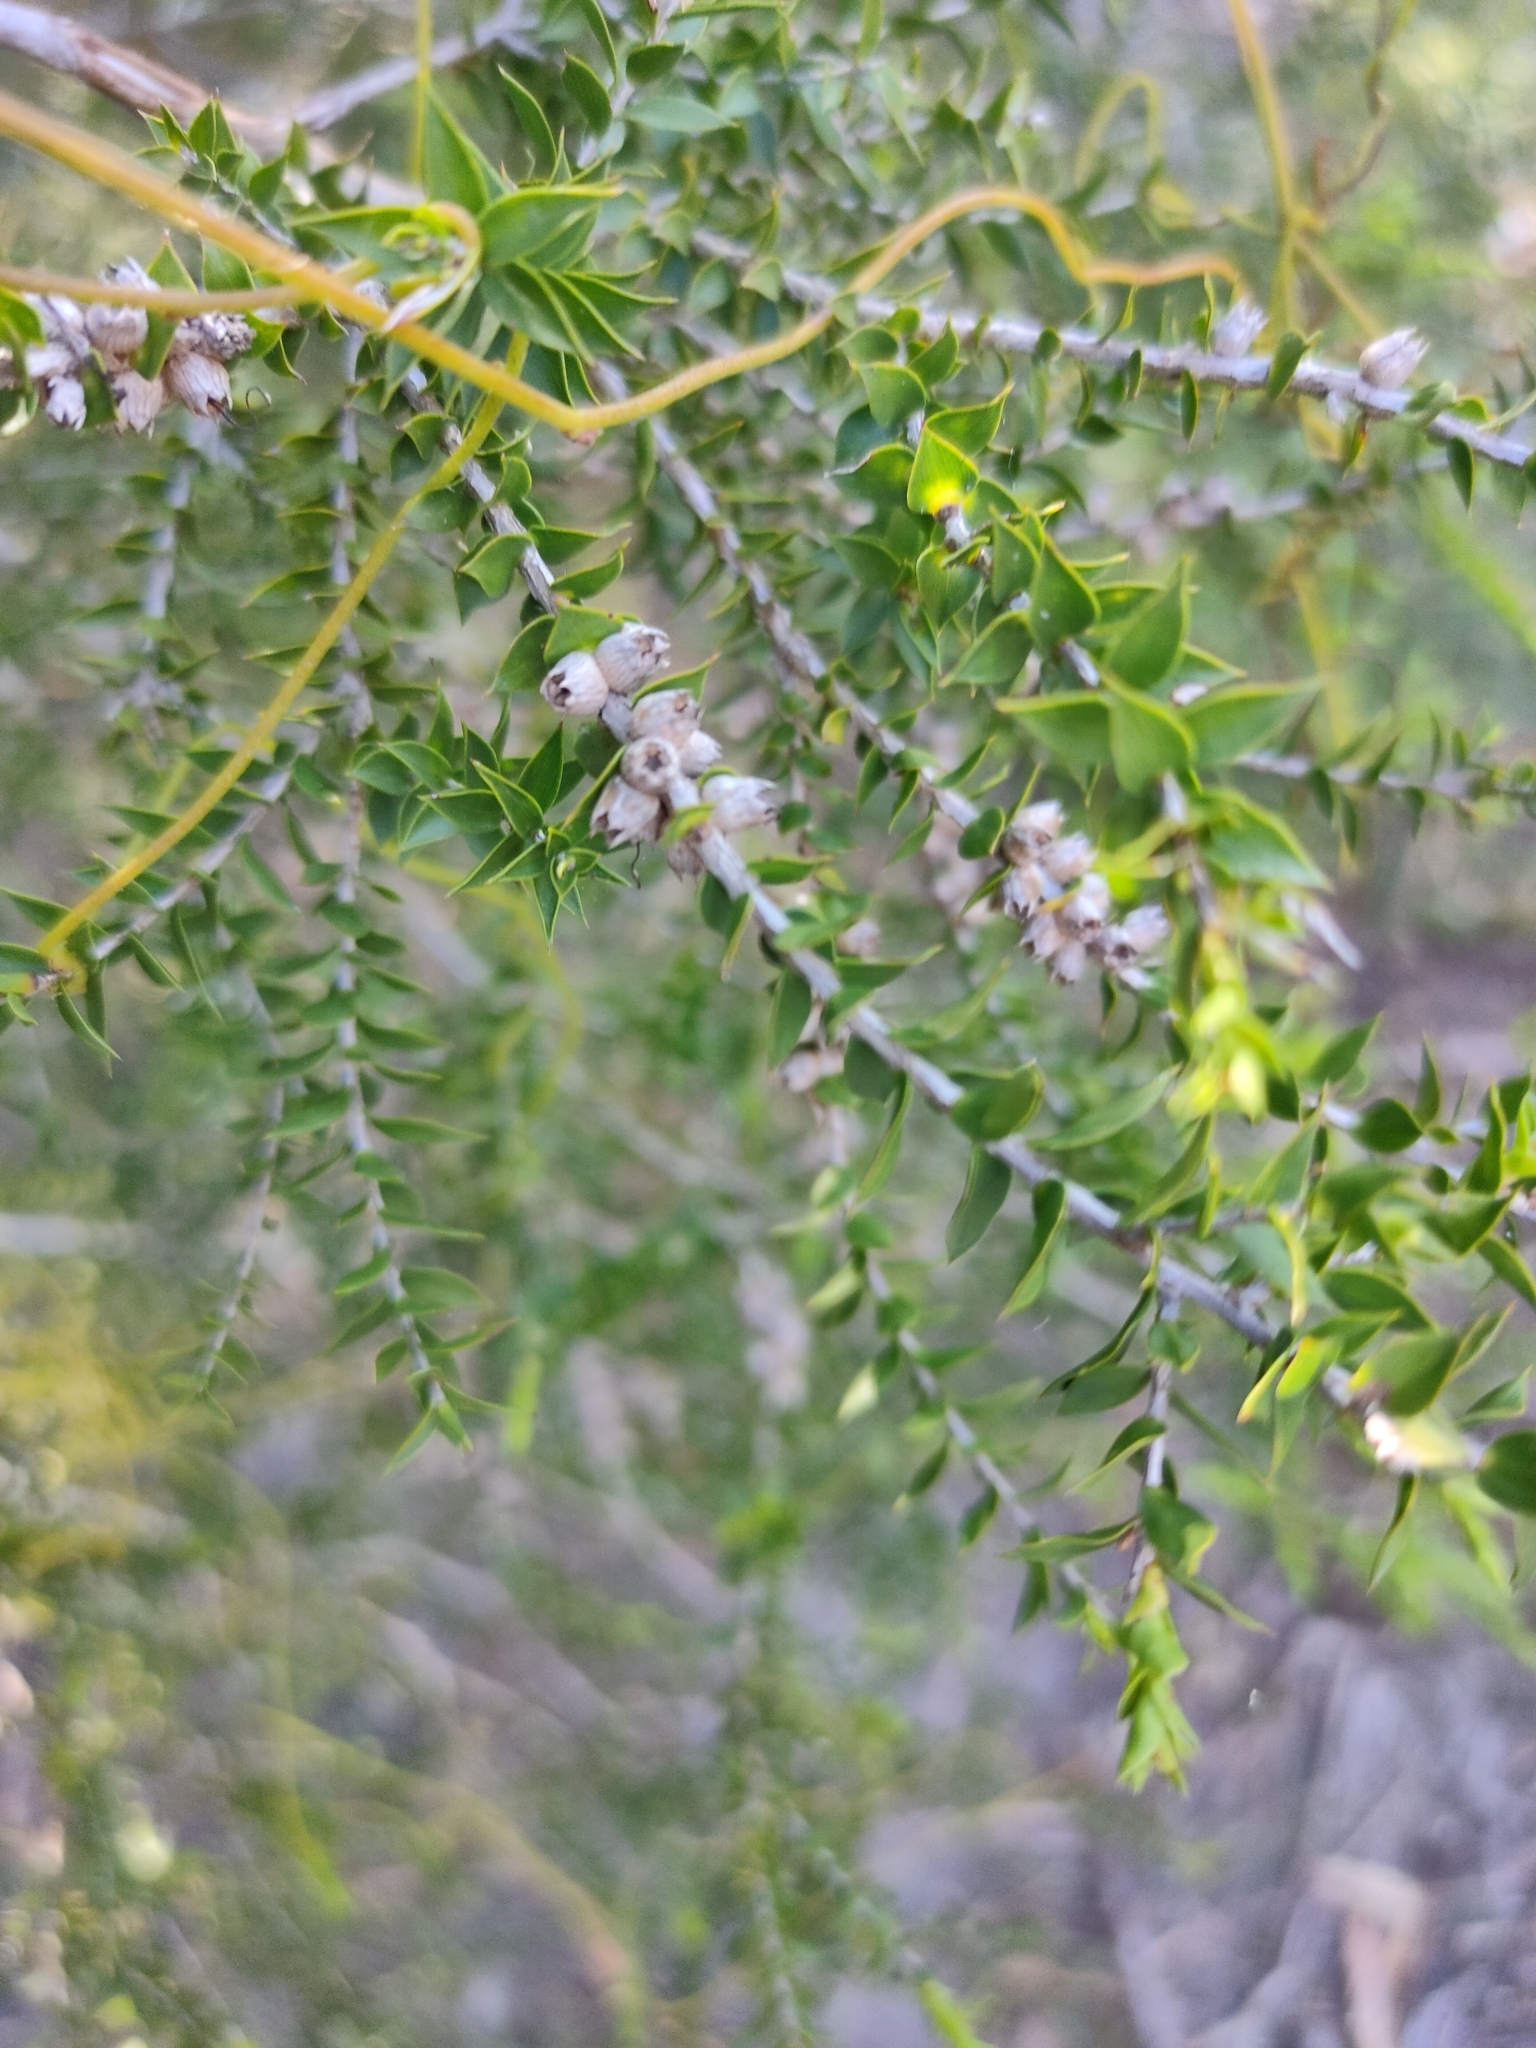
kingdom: Plantae
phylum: Tracheophyta
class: Magnoliopsida
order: Myrtales
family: Myrtaceae
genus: Melaleuca
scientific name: Melaleuca styphelioides
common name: Prickly paperbark
